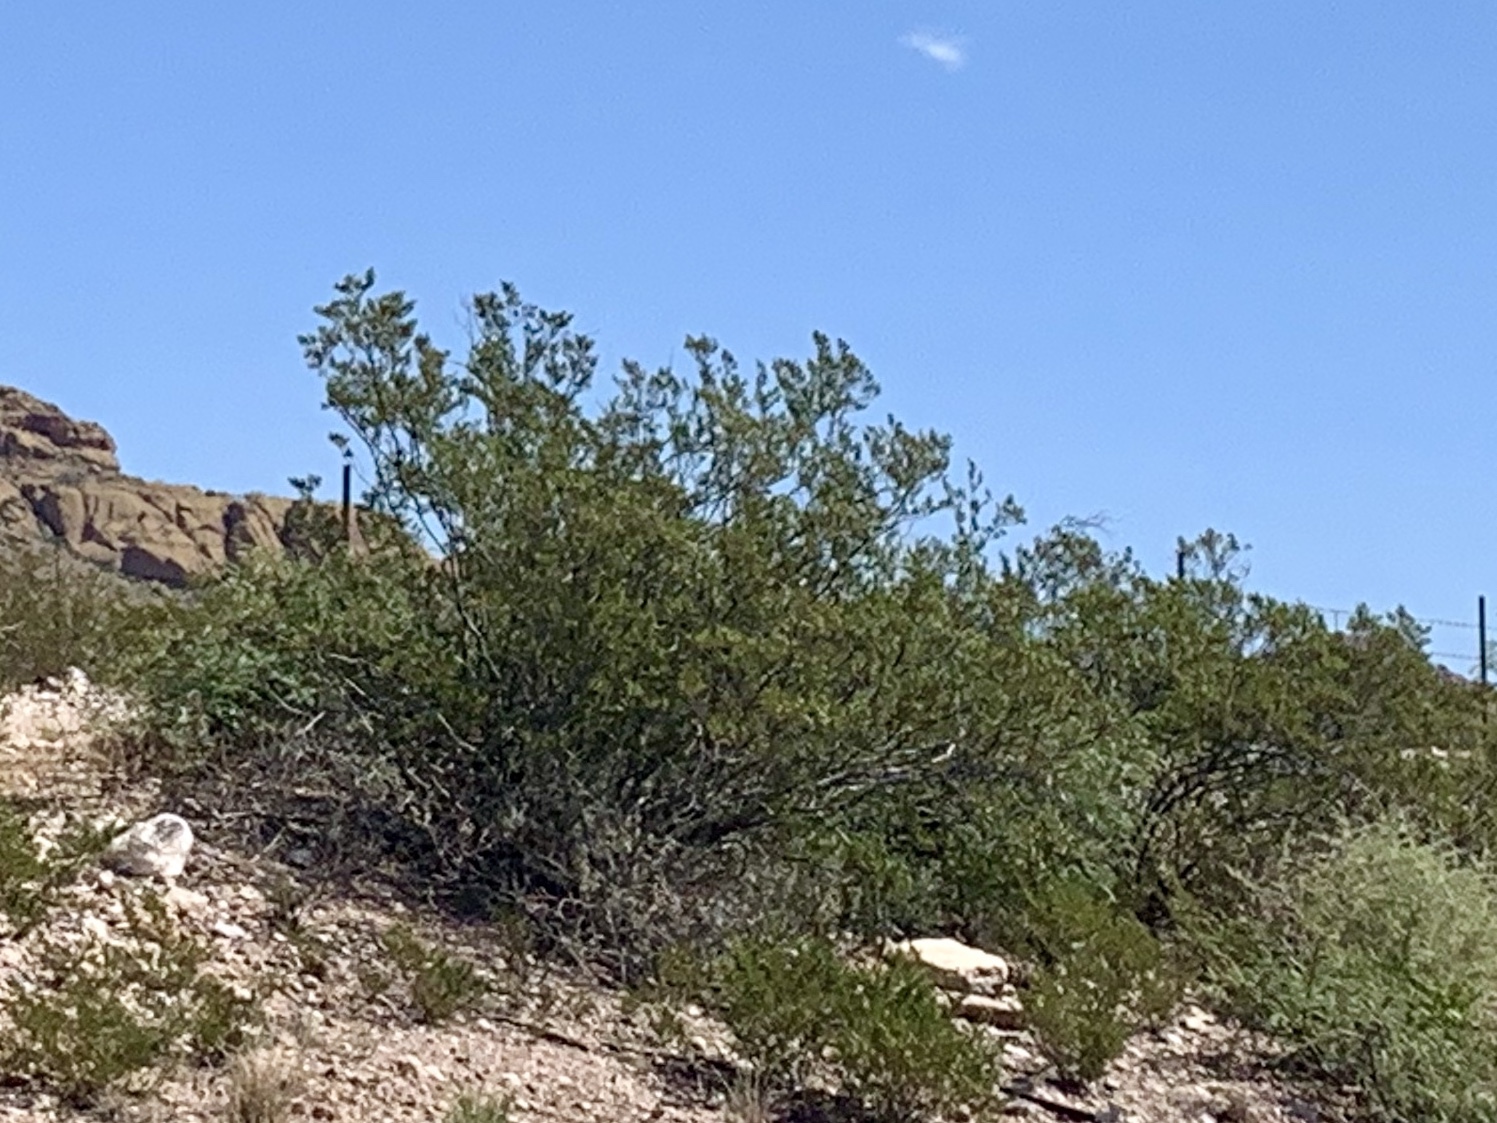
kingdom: Plantae
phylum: Tracheophyta
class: Magnoliopsida
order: Zygophyllales
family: Zygophyllaceae
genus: Larrea
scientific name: Larrea tridentata
